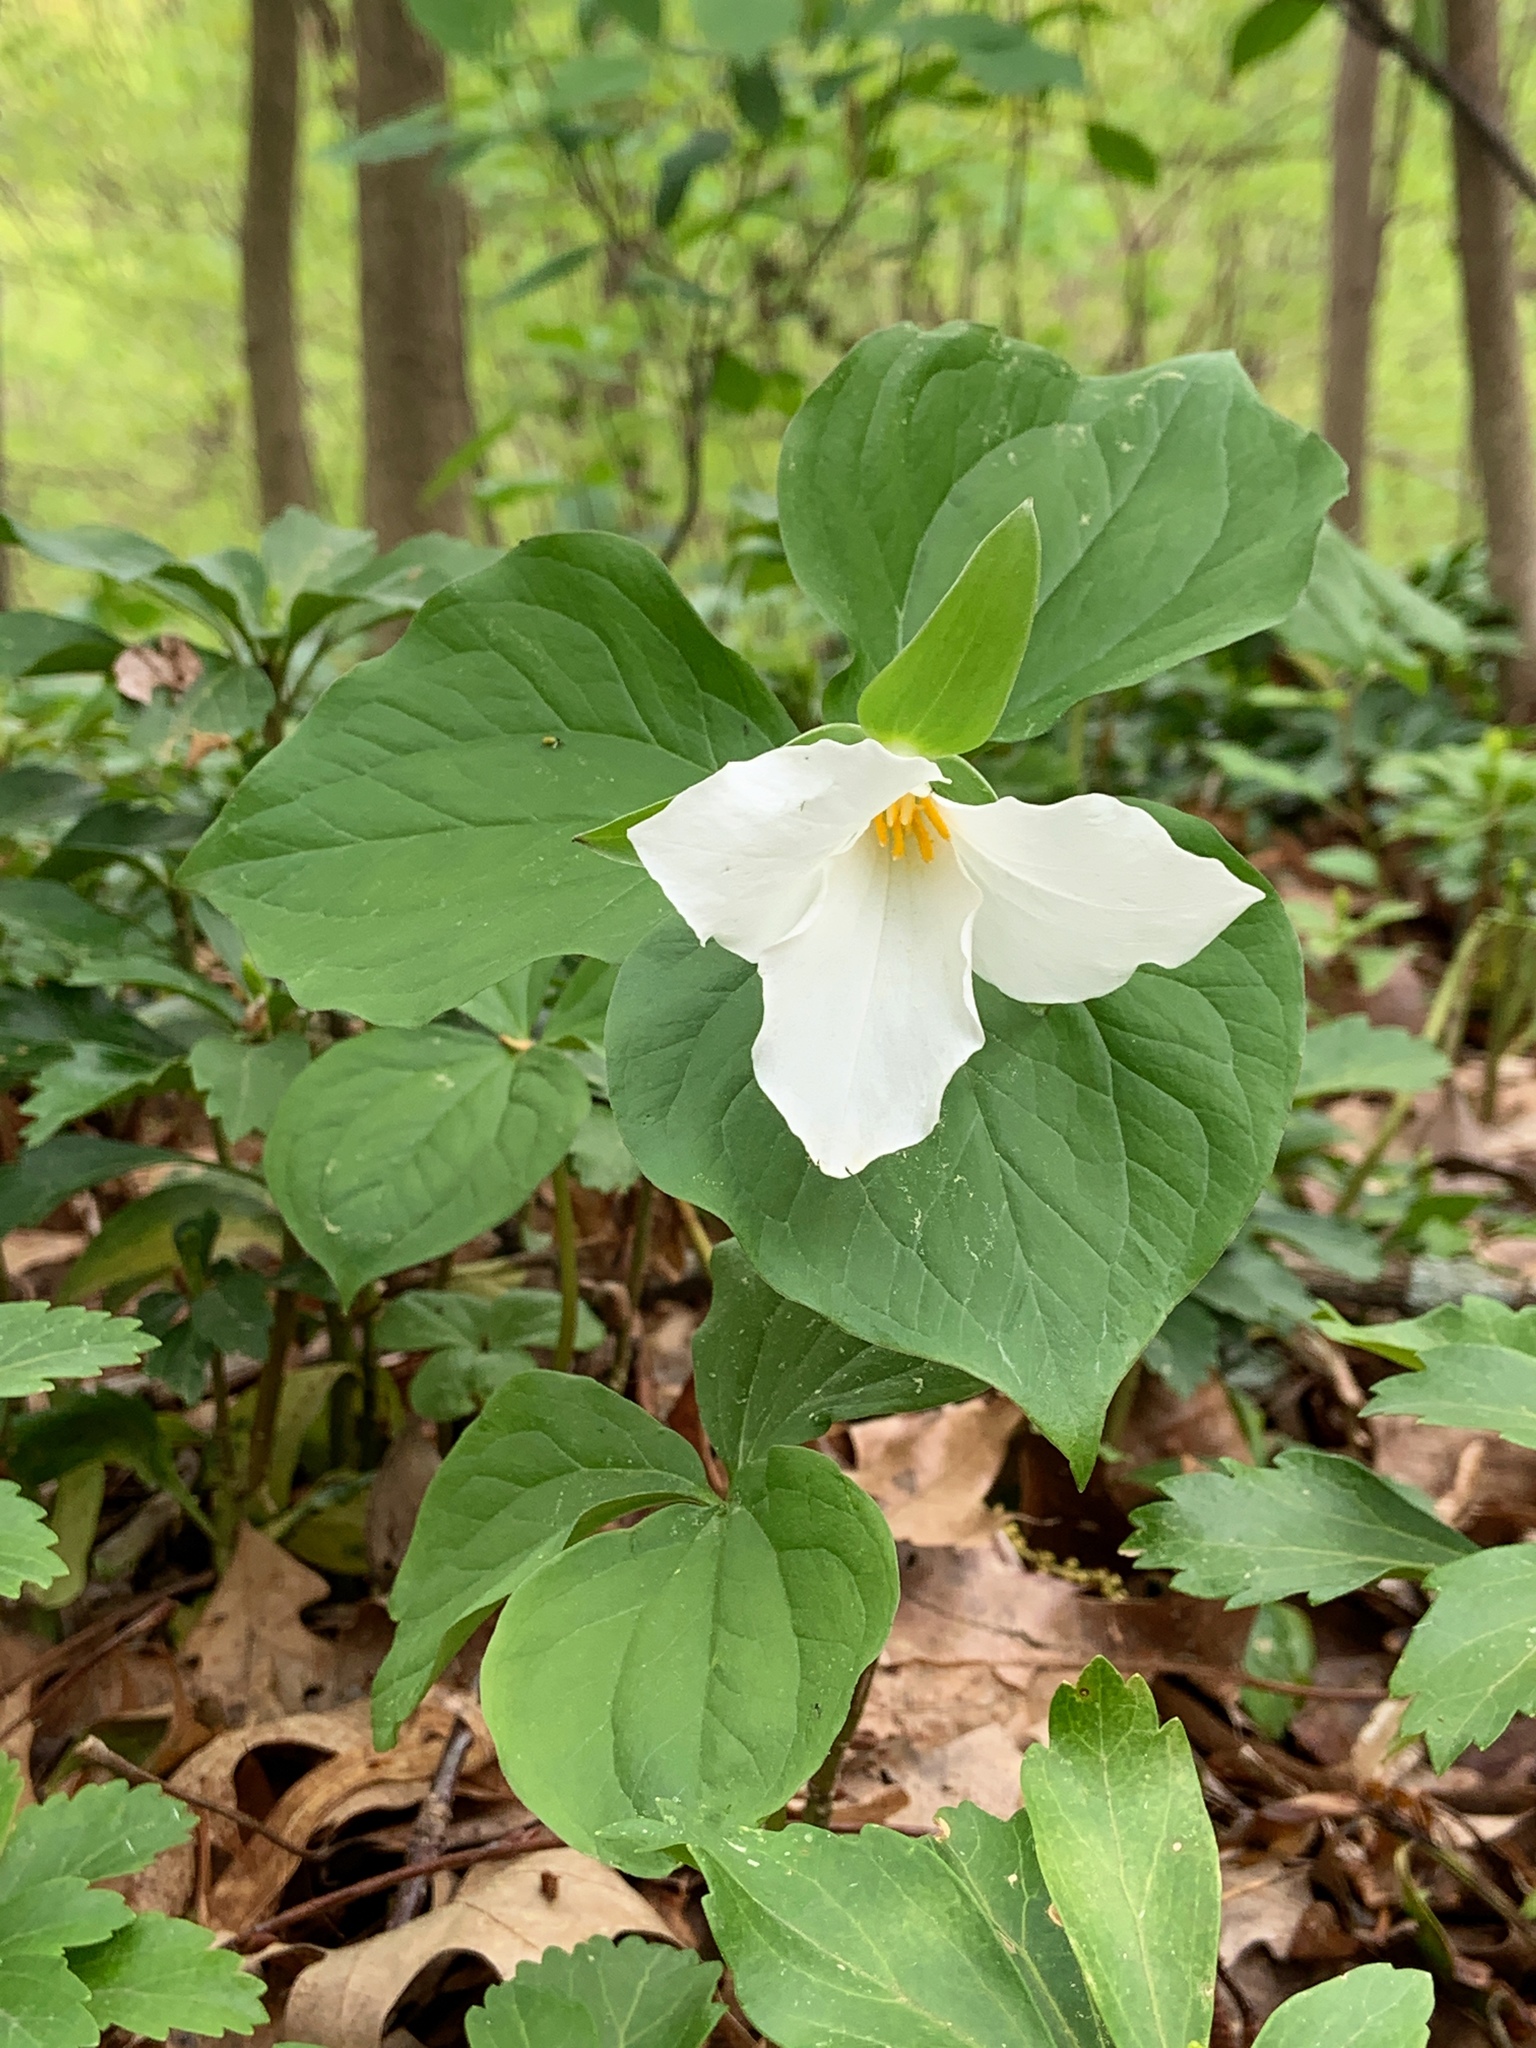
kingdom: Plantae
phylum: Tracheophyta
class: Liliopsida
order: Liliales
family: Melanthiaceae
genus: Trillium
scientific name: Trillium grandiflorum
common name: Great white trillium
